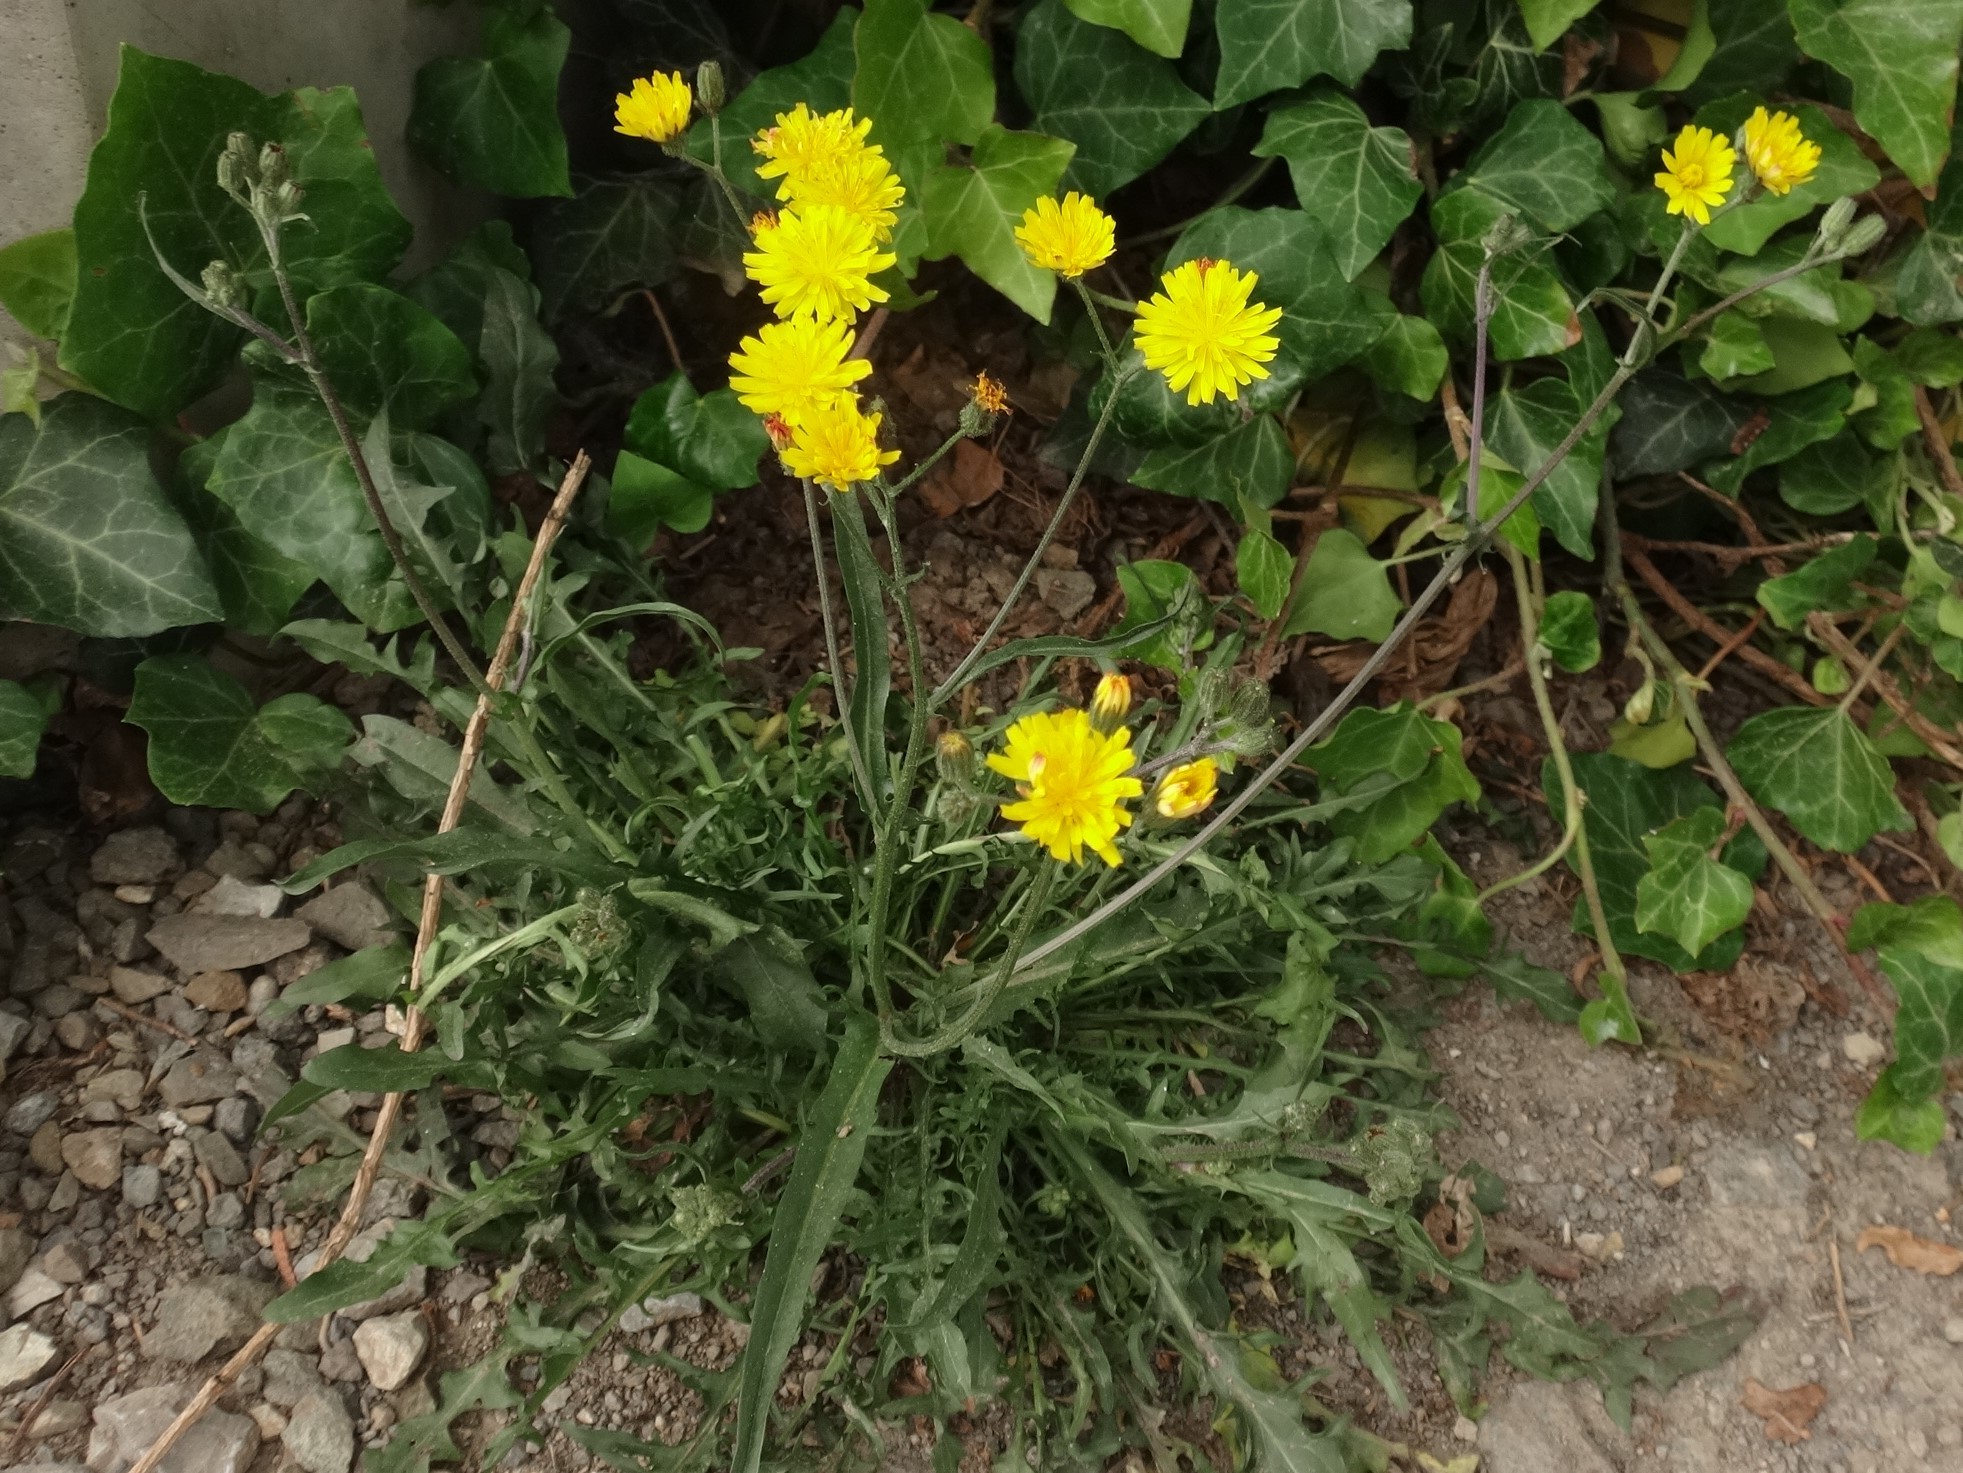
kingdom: Plantae
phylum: Tracheophyta
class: Magnoliopsida
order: Asterales
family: Asteraceae
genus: Crepis
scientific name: Crepis capillaris
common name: Smooth hawksbeard
